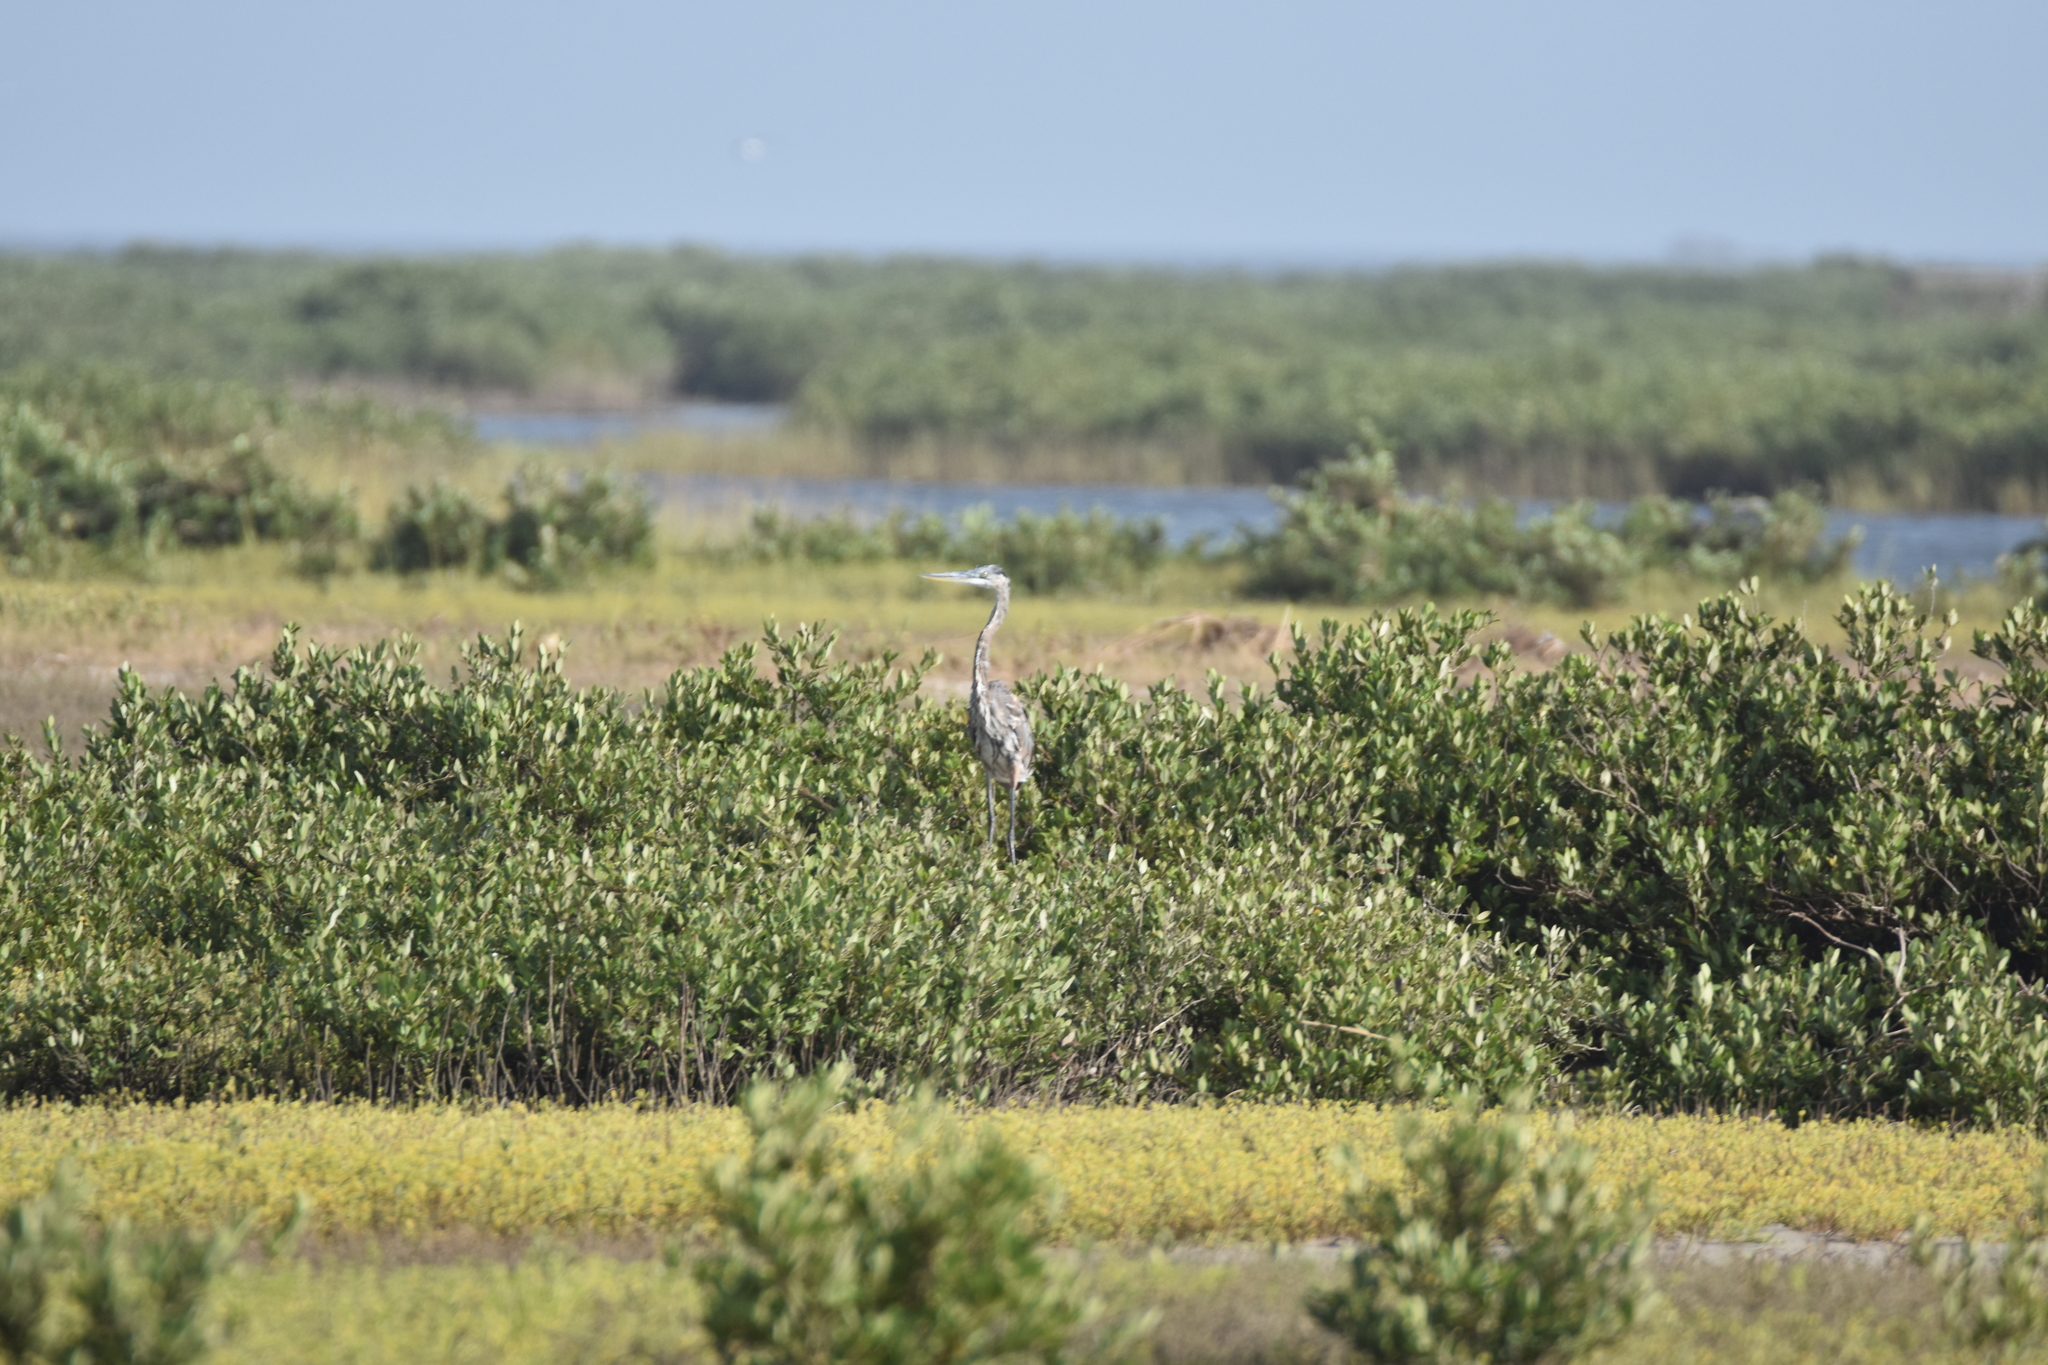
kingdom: Animalia
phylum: Chordata
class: Aves
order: Pelecaniformes
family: Ardeidae
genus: Ardea
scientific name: Ardea herodias
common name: Great blue heron
